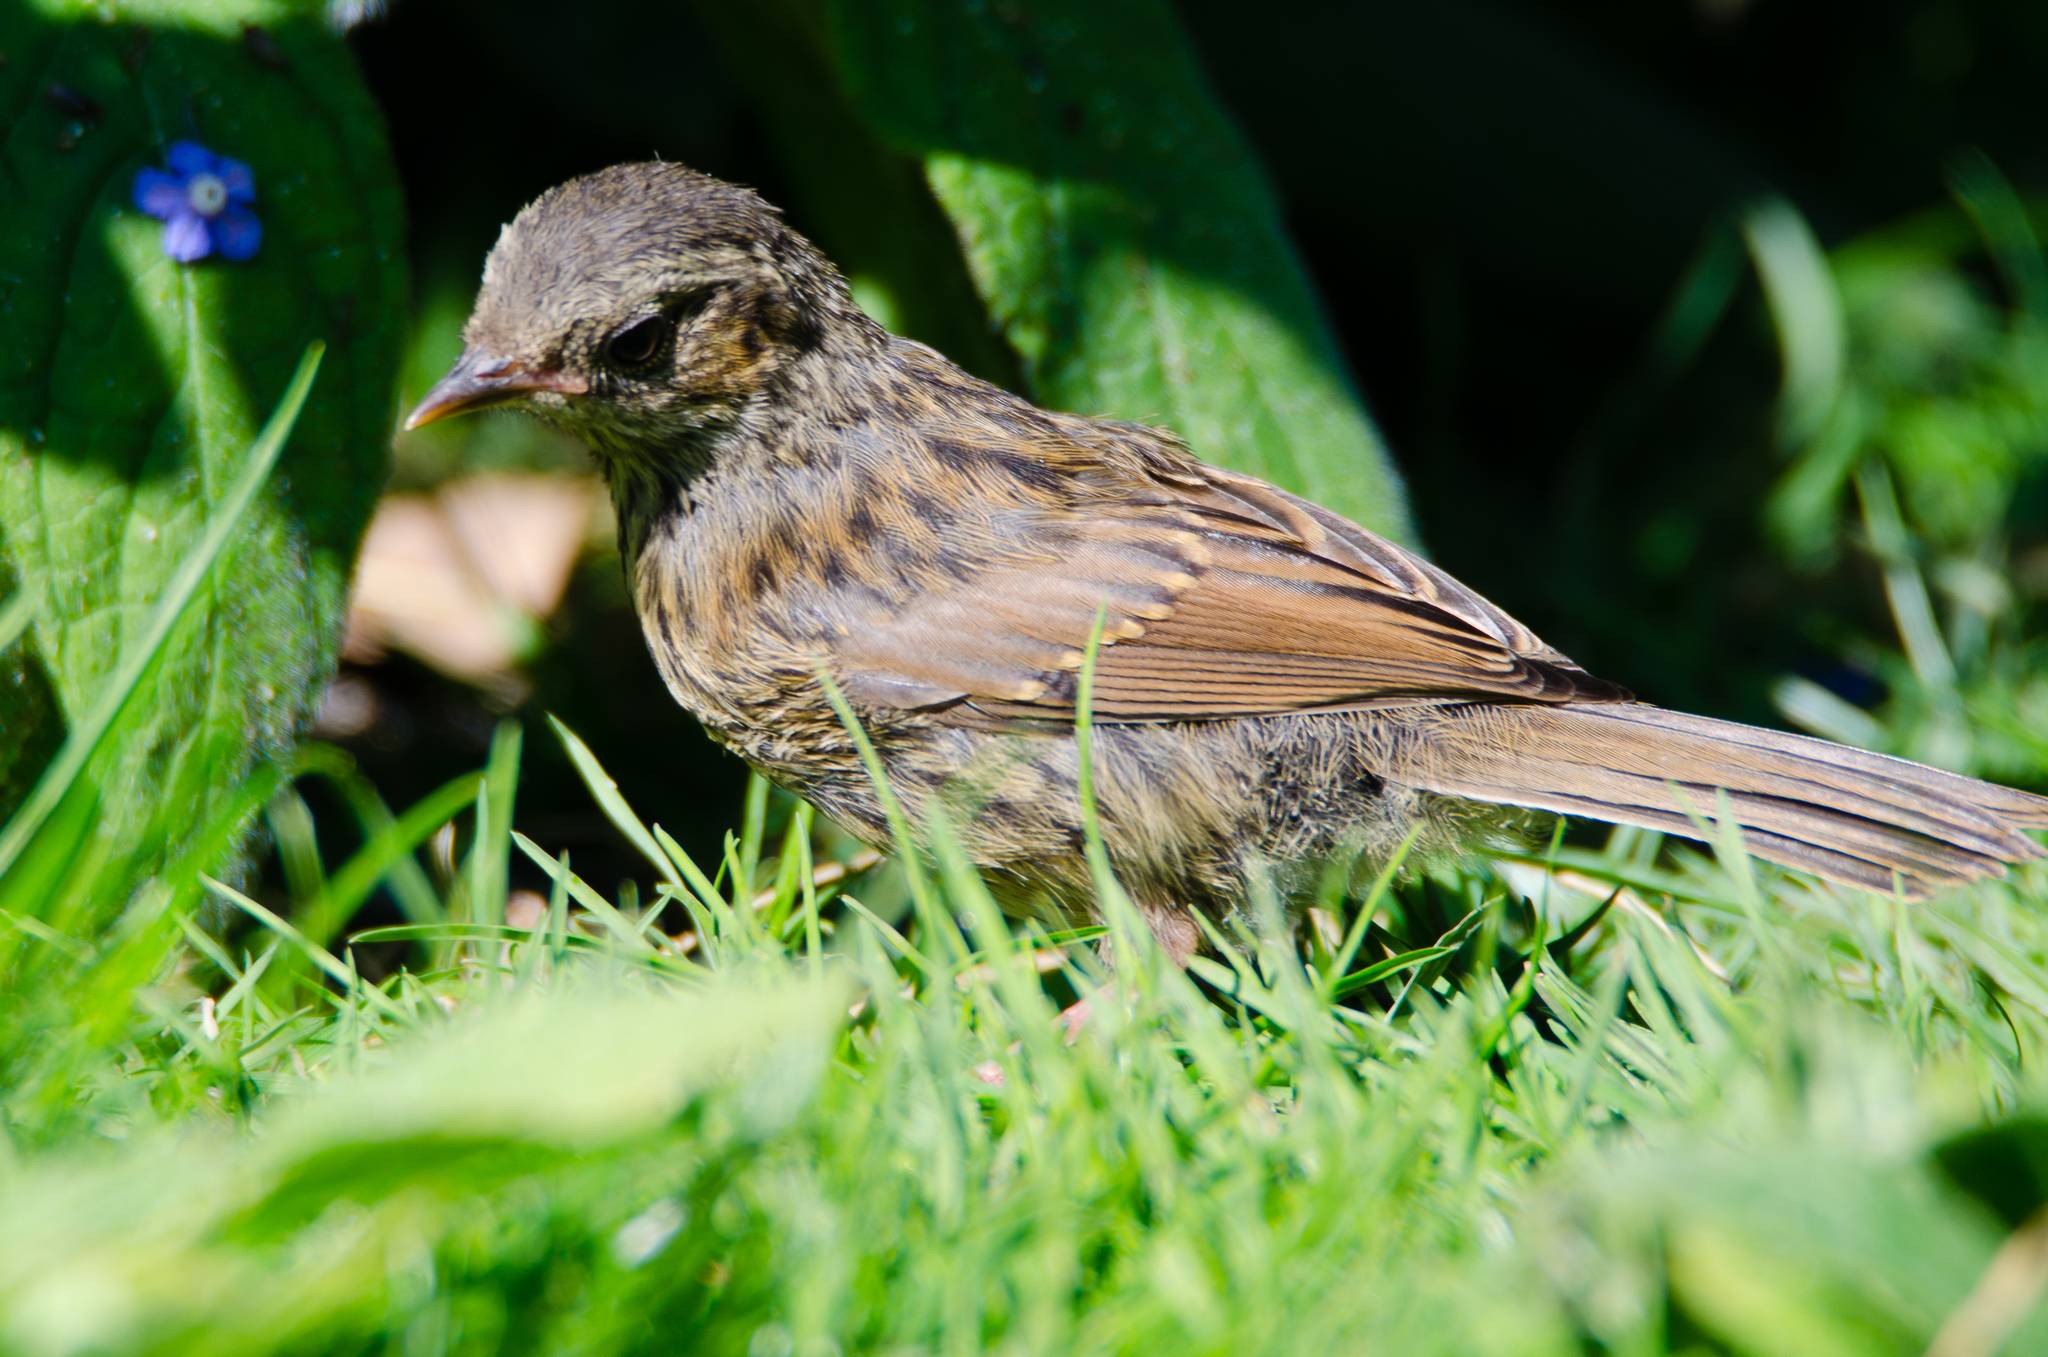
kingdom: Animalia
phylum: Chordata
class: Aves
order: Passeriformes
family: Prunellidae
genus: Prunella
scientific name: Prunella modularis
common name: Dunnock
